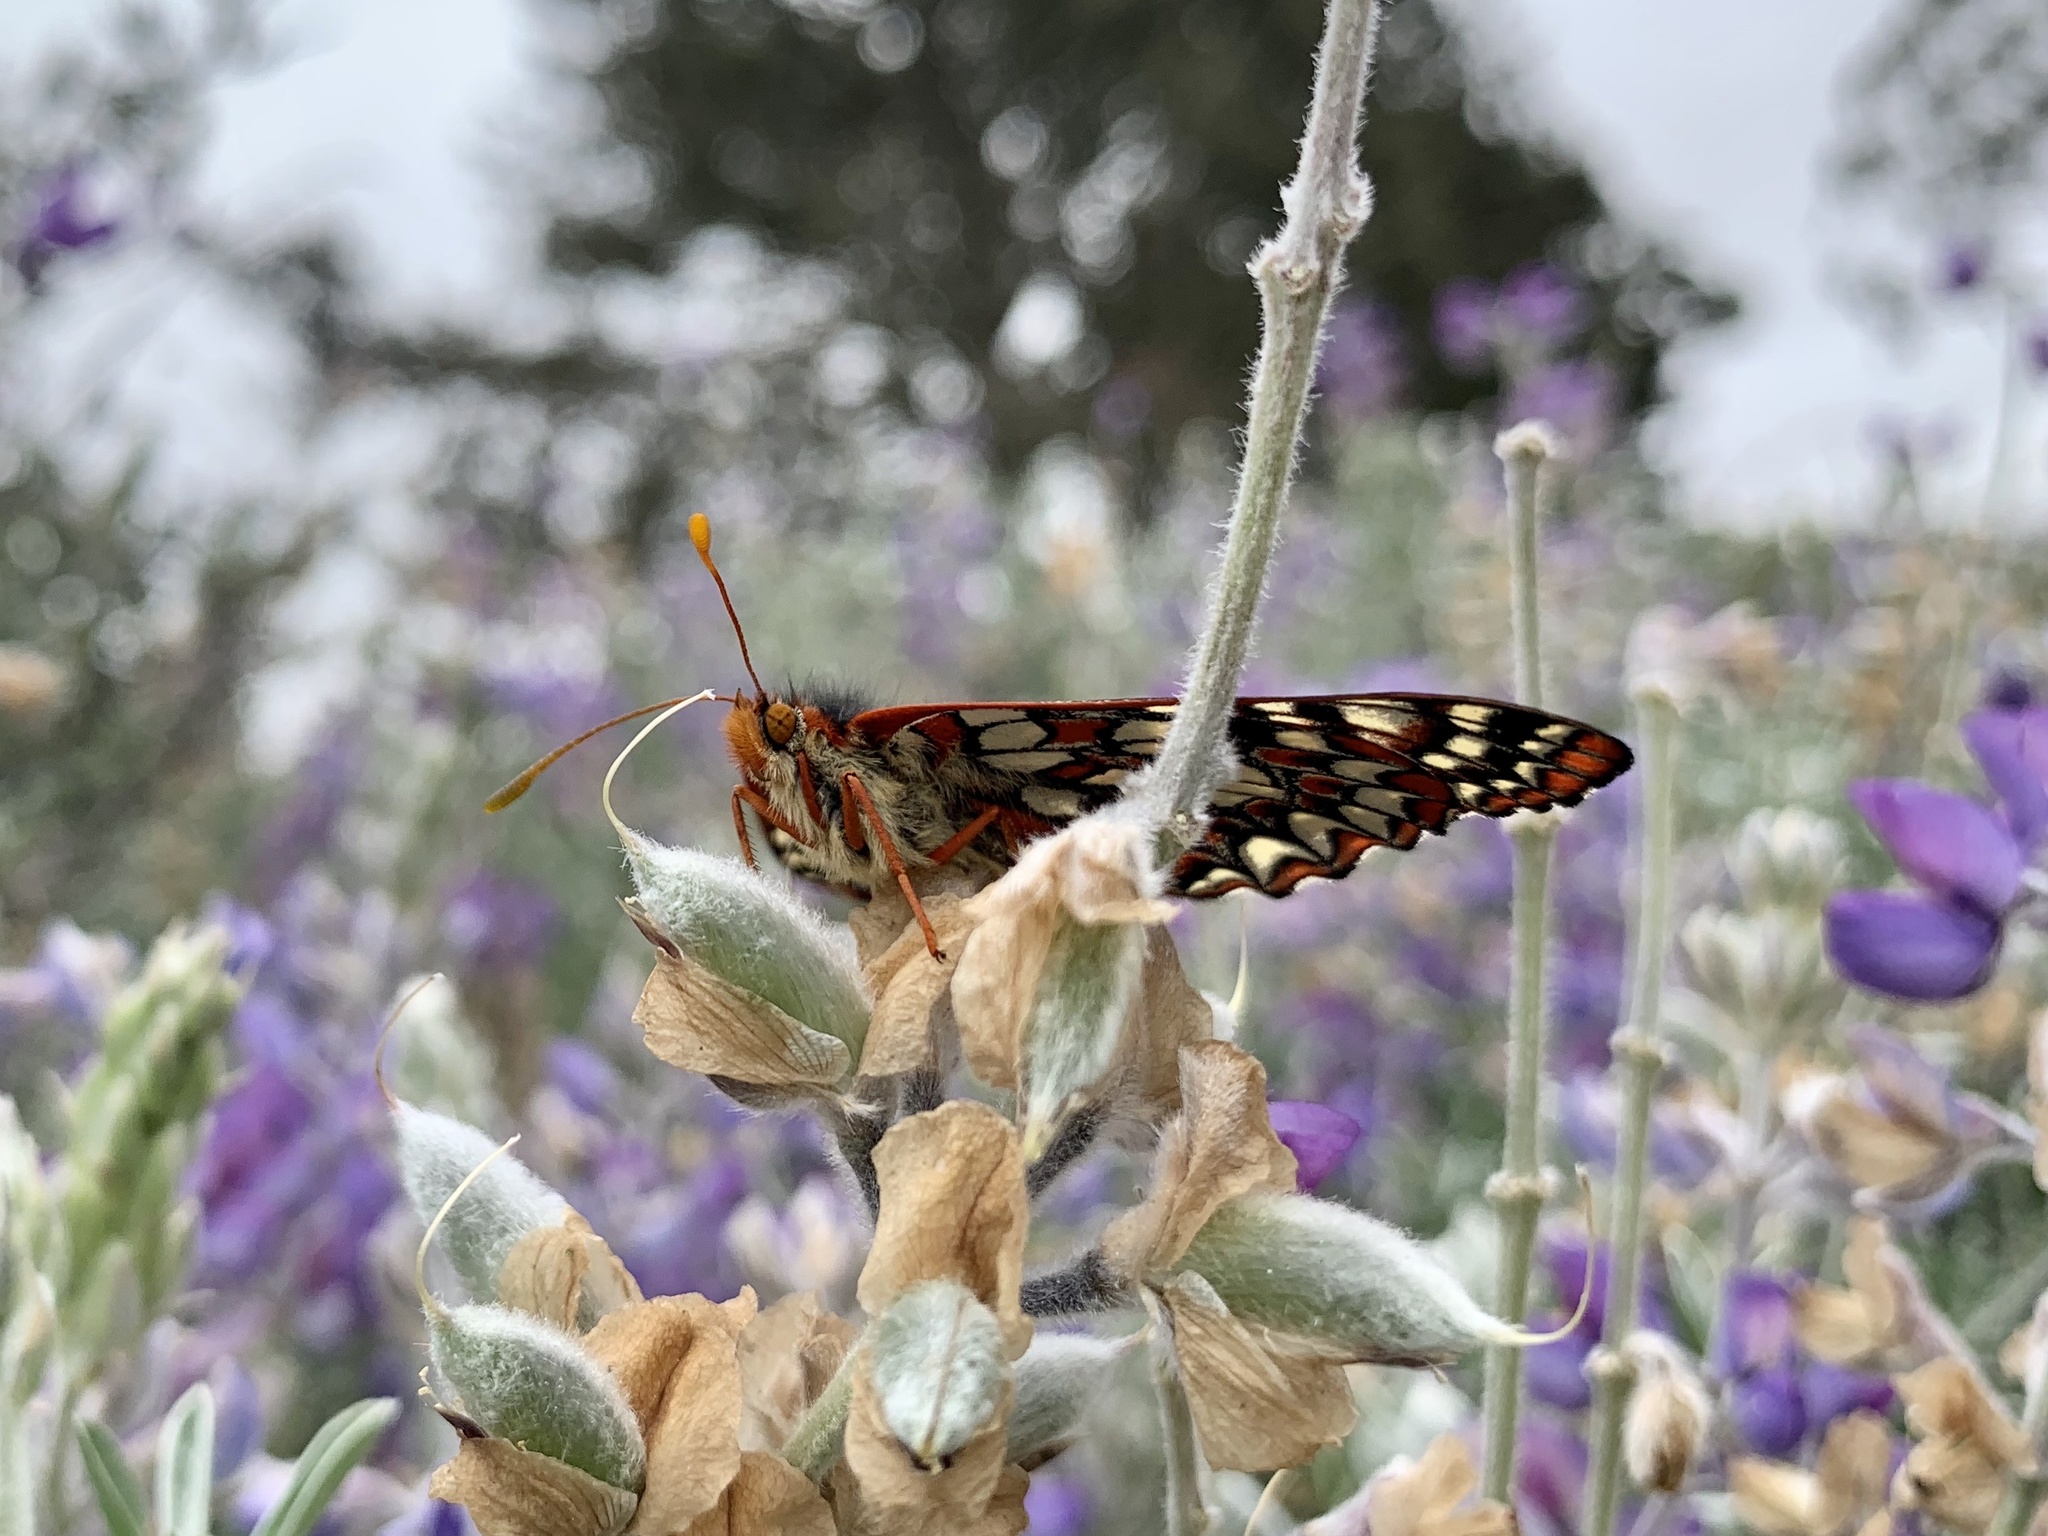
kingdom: Animalia
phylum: Arthropoda
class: Insecta
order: Lepidoptera
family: Nymphalidae
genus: Occidryas
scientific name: Occidryas chalcedona
